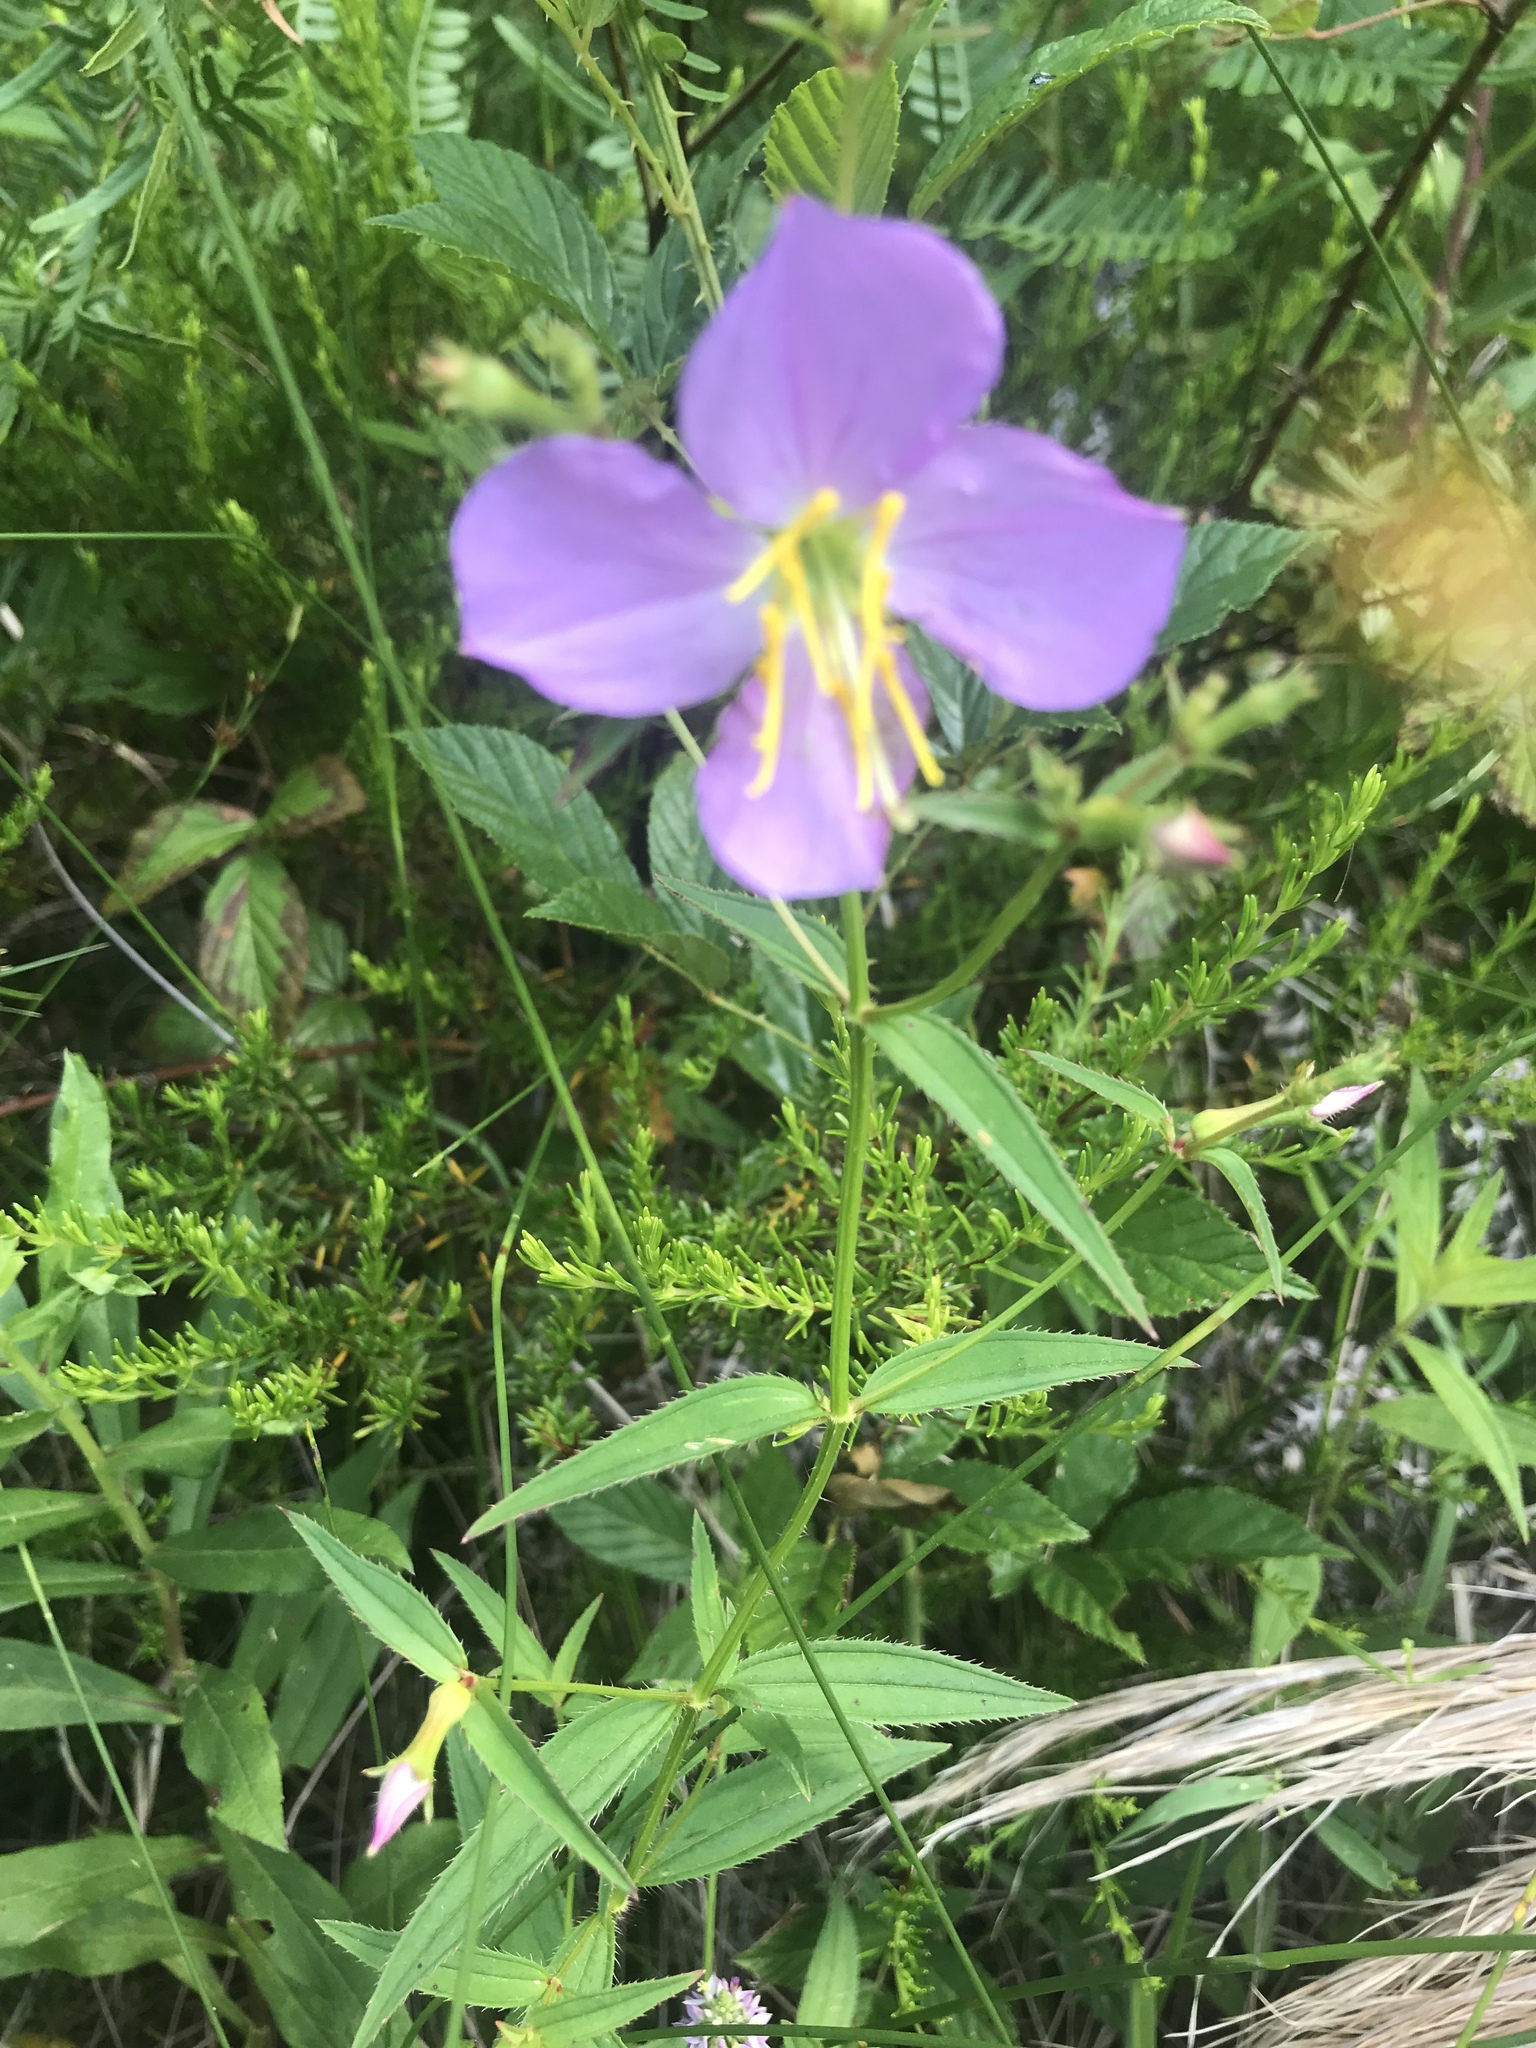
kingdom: Plantae
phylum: Tracheophyta
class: Magnoliopsida
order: Myrtales
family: Melastomataceae
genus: Rhexia
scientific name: Rhexia nashii
